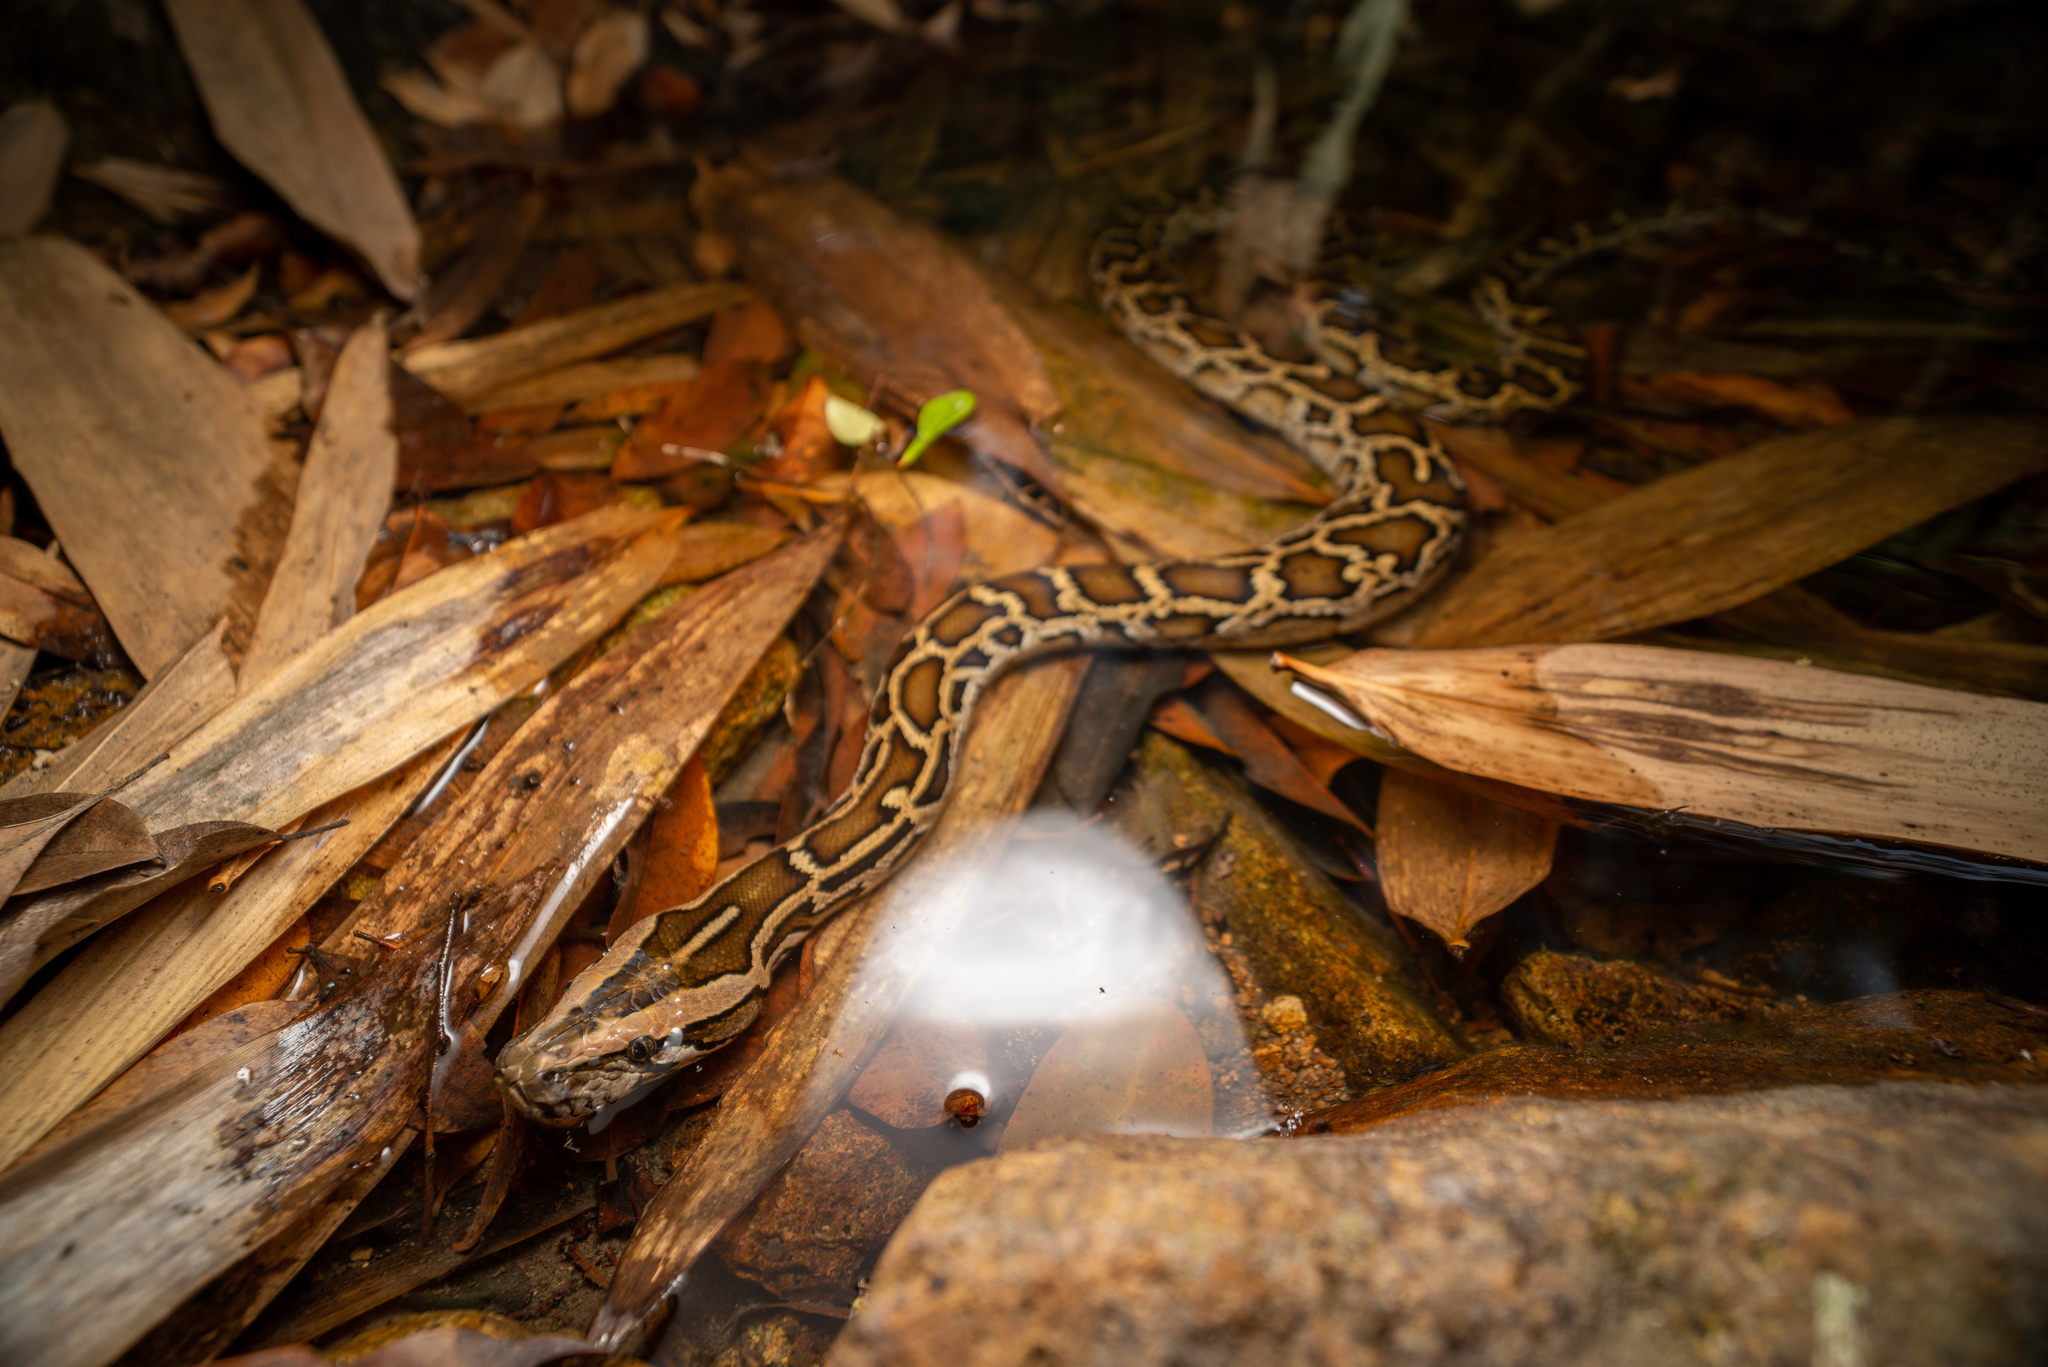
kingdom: Animalia
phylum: Chordata
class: Squamata
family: Pythonidae
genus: Python
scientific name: Python bivittatus
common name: Burmese python
